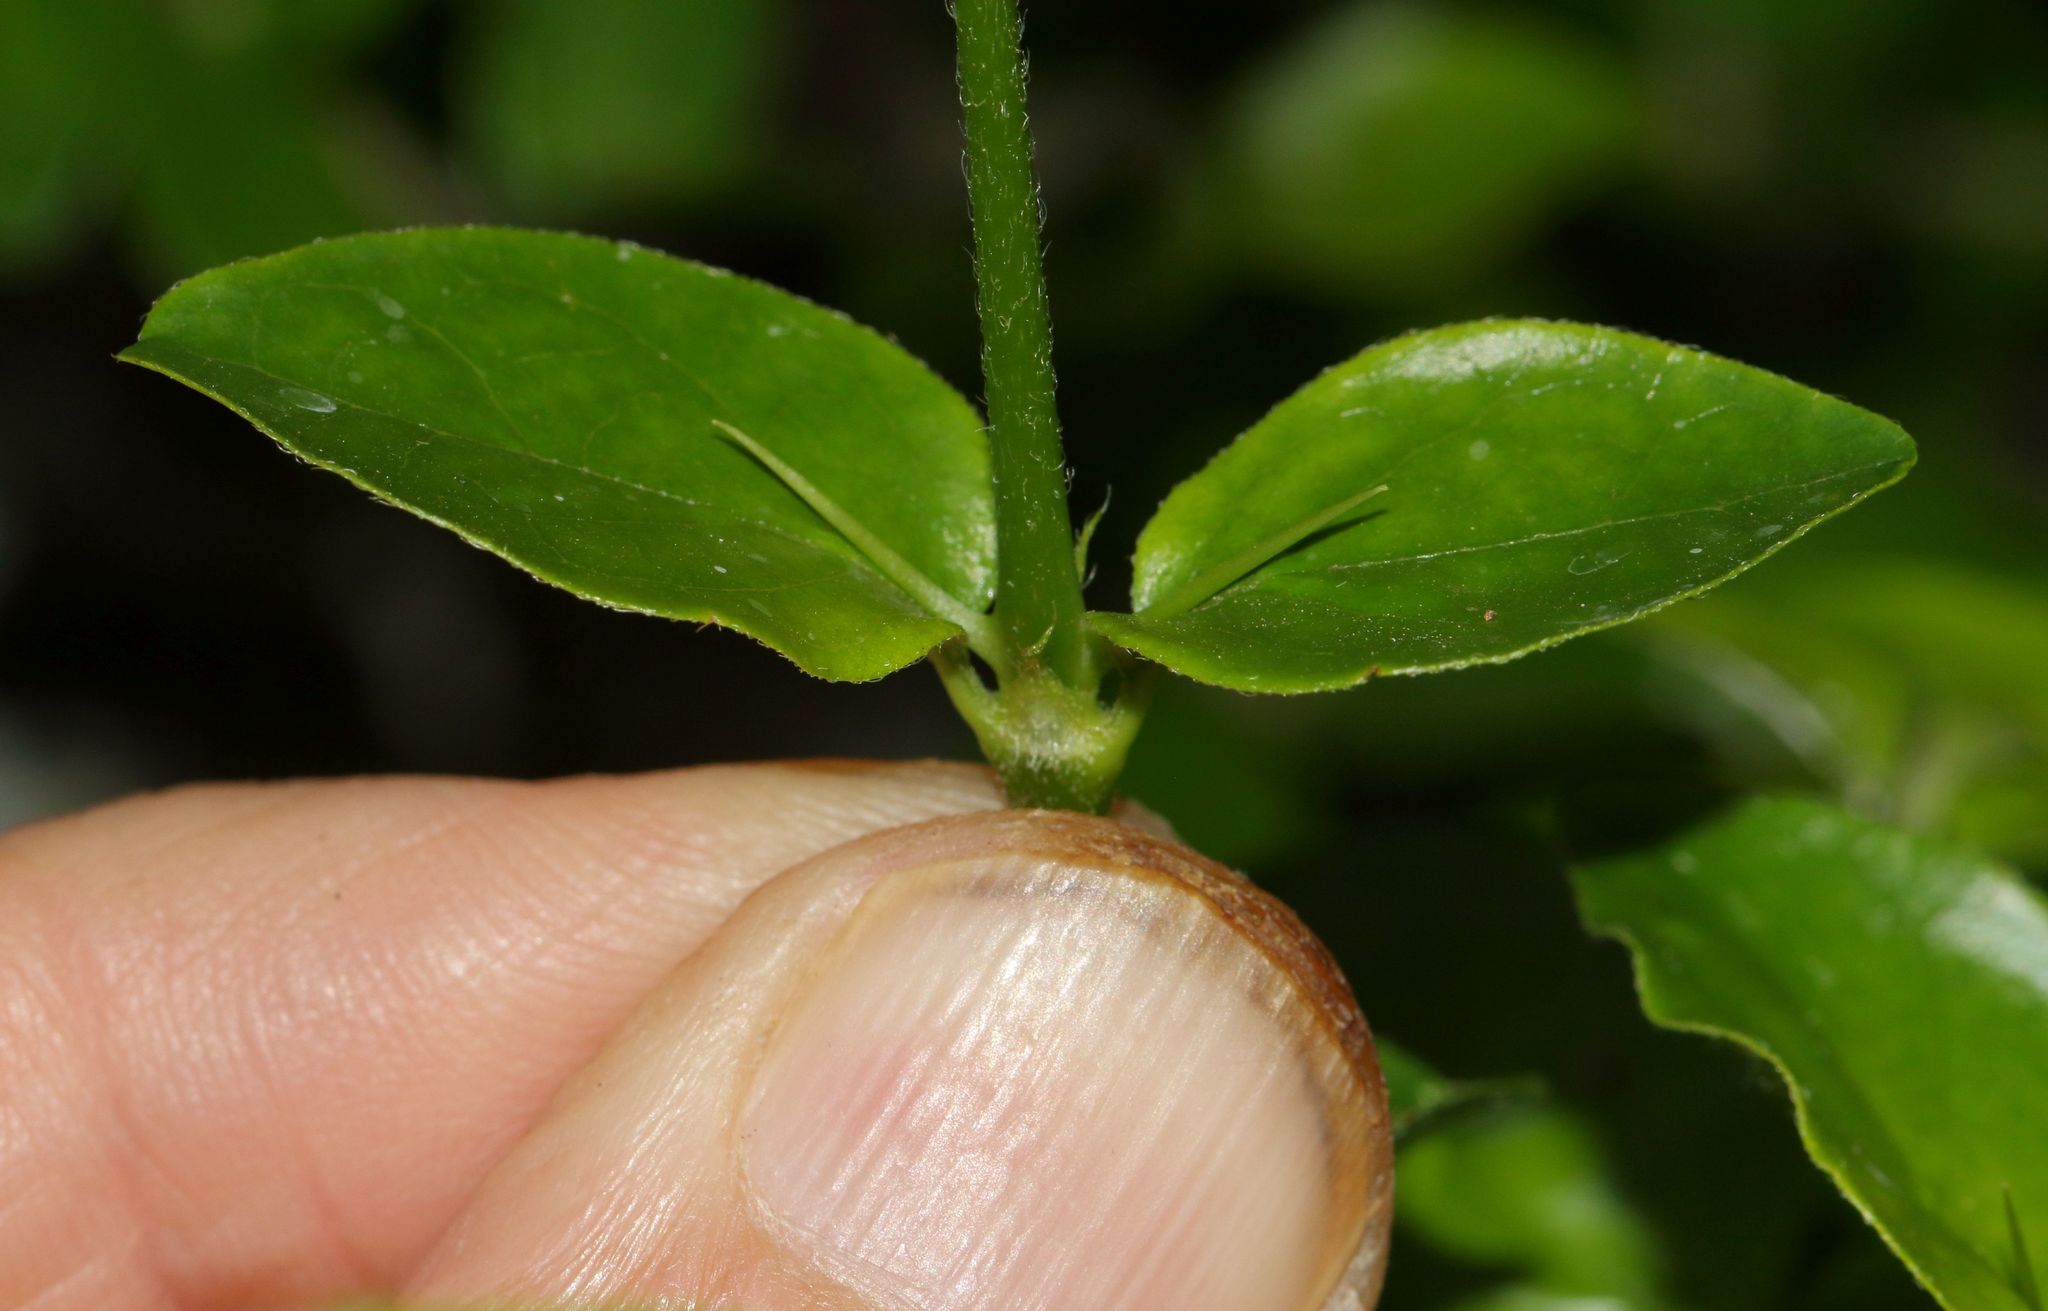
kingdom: Plantae
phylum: Tracheophyta
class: Magnoliopsida
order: Gentianales
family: Rubiaceae
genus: Canthium
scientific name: Canthium ciliatum
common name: Hairy turkey-berry
